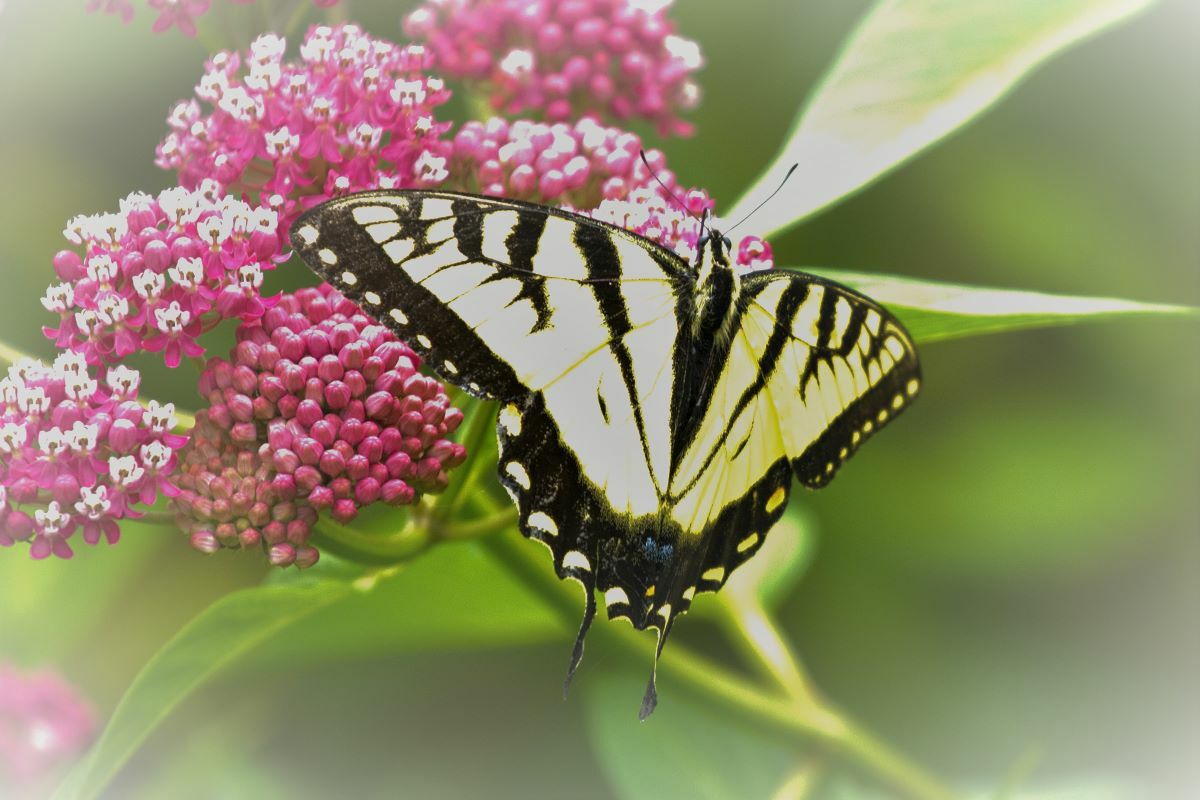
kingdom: Animalia
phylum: Arthropoda
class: Insecta
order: Lepidoptera
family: Papilionidae
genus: Papilio
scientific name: Papilio
